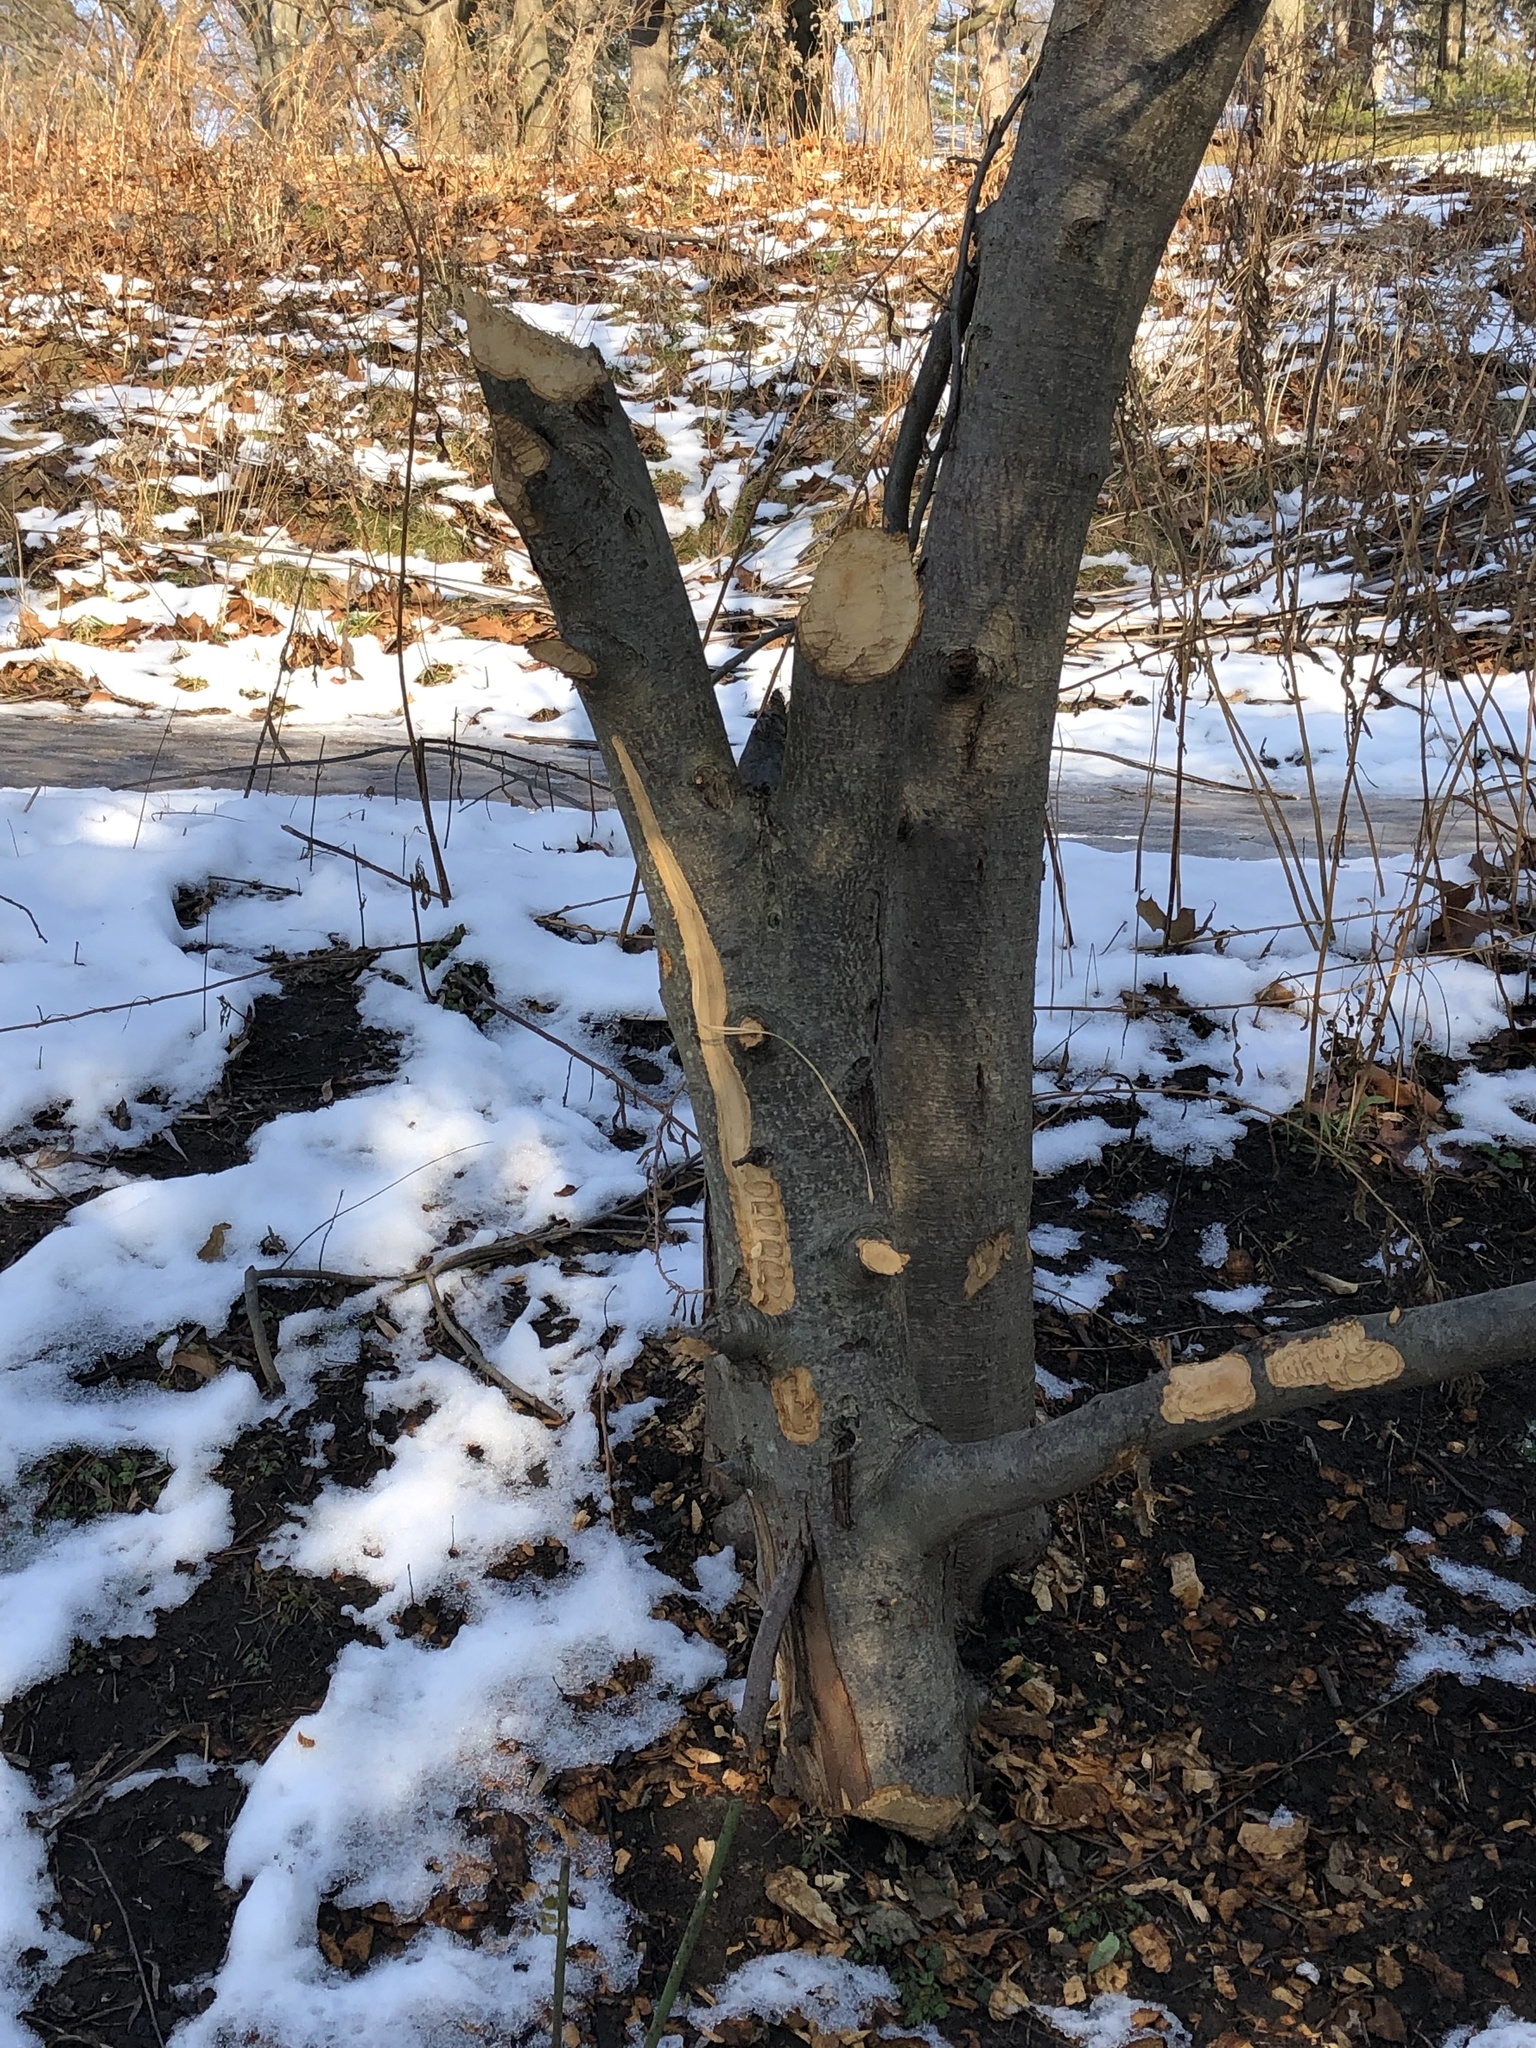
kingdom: Animalia
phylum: Chordata
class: Mammalia
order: Rodentia
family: Castoridae
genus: Castor
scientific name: Castor canadensis
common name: American beaver
